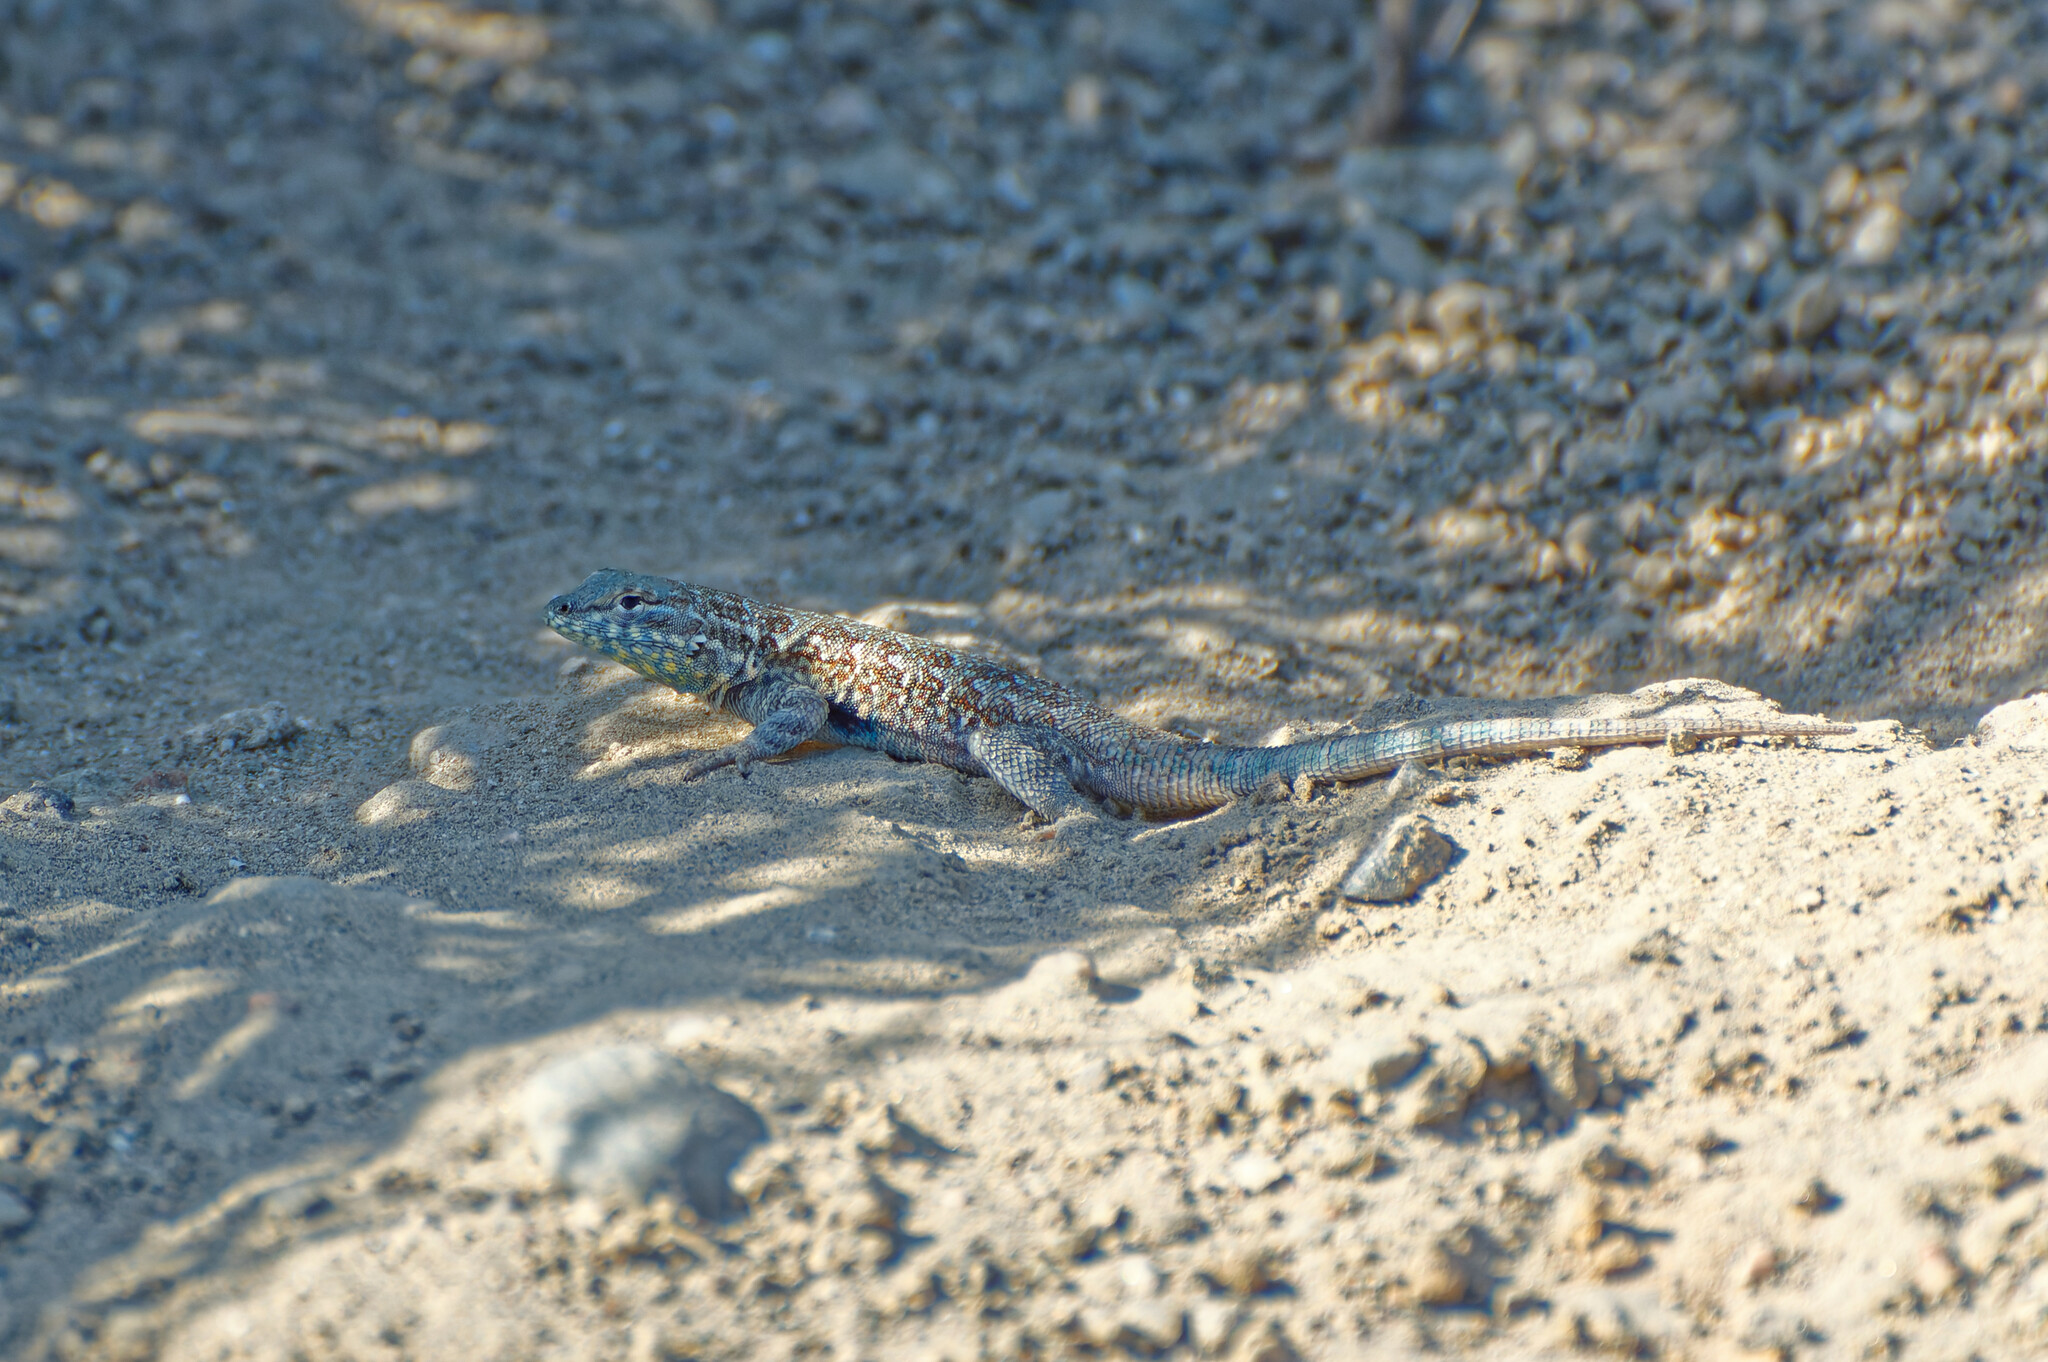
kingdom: Animalia
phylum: Chordata
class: Squamata
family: Phrynosomatidae
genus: Uta
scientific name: Uta stansburiana
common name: Side-blotched lizard
